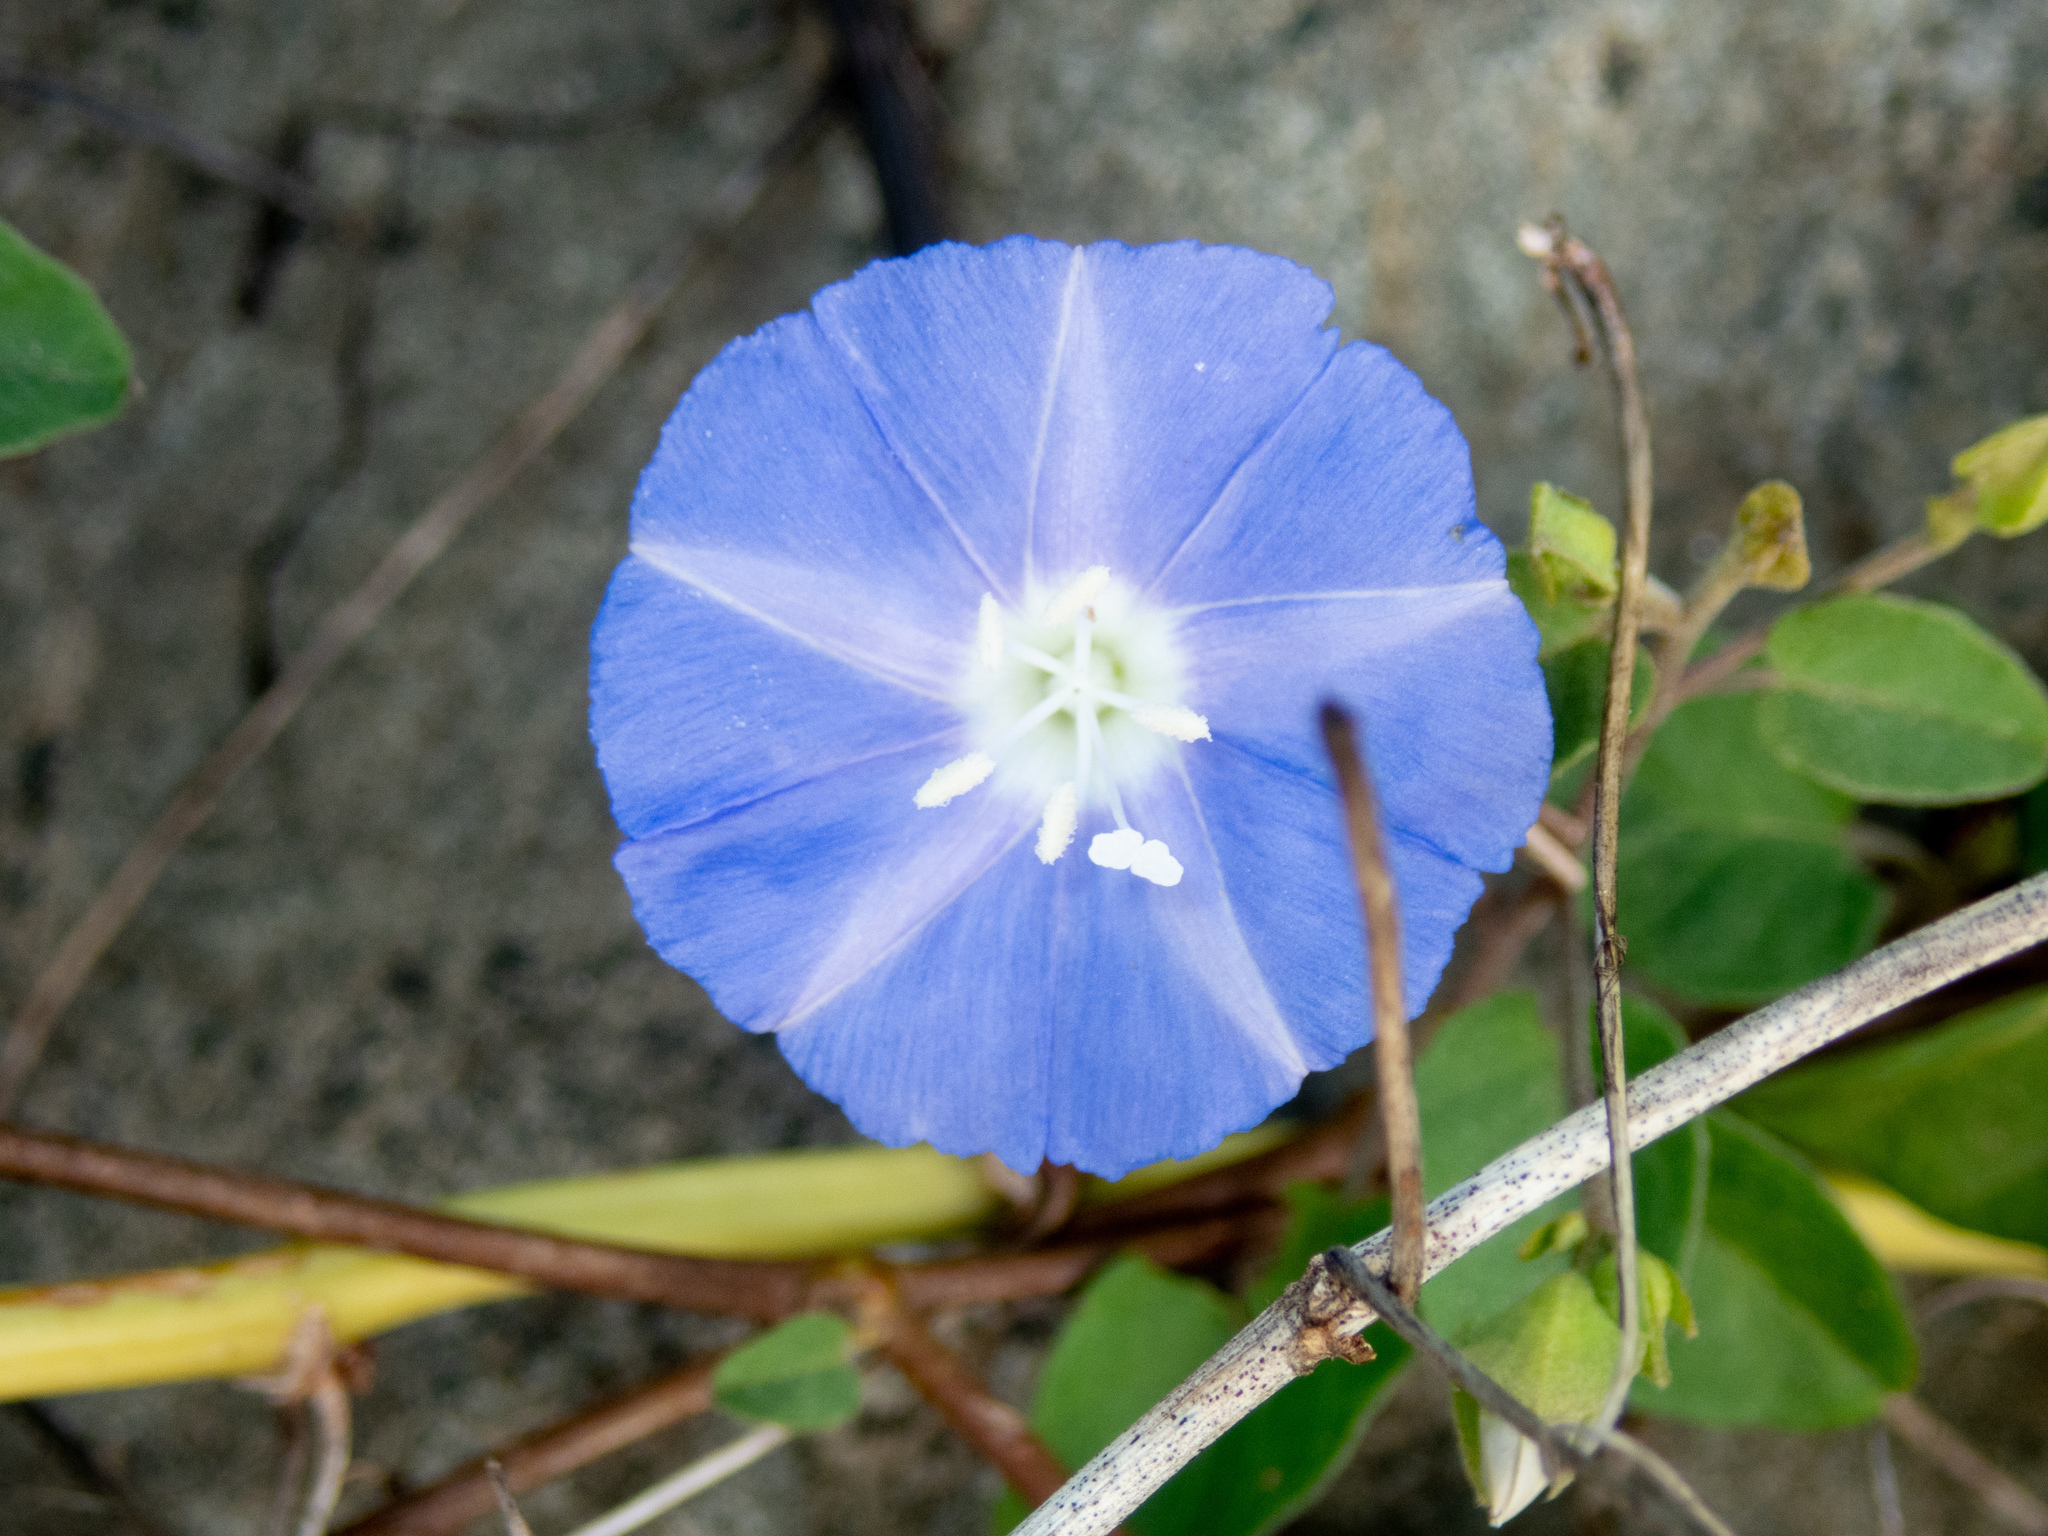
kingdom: Plantae
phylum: Tracheophyta
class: Magnoliopsida
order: Solanales
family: Convolvulaceae
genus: Jacquemontia
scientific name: Jacquemontia cumanensis
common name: Thicket clustervine
